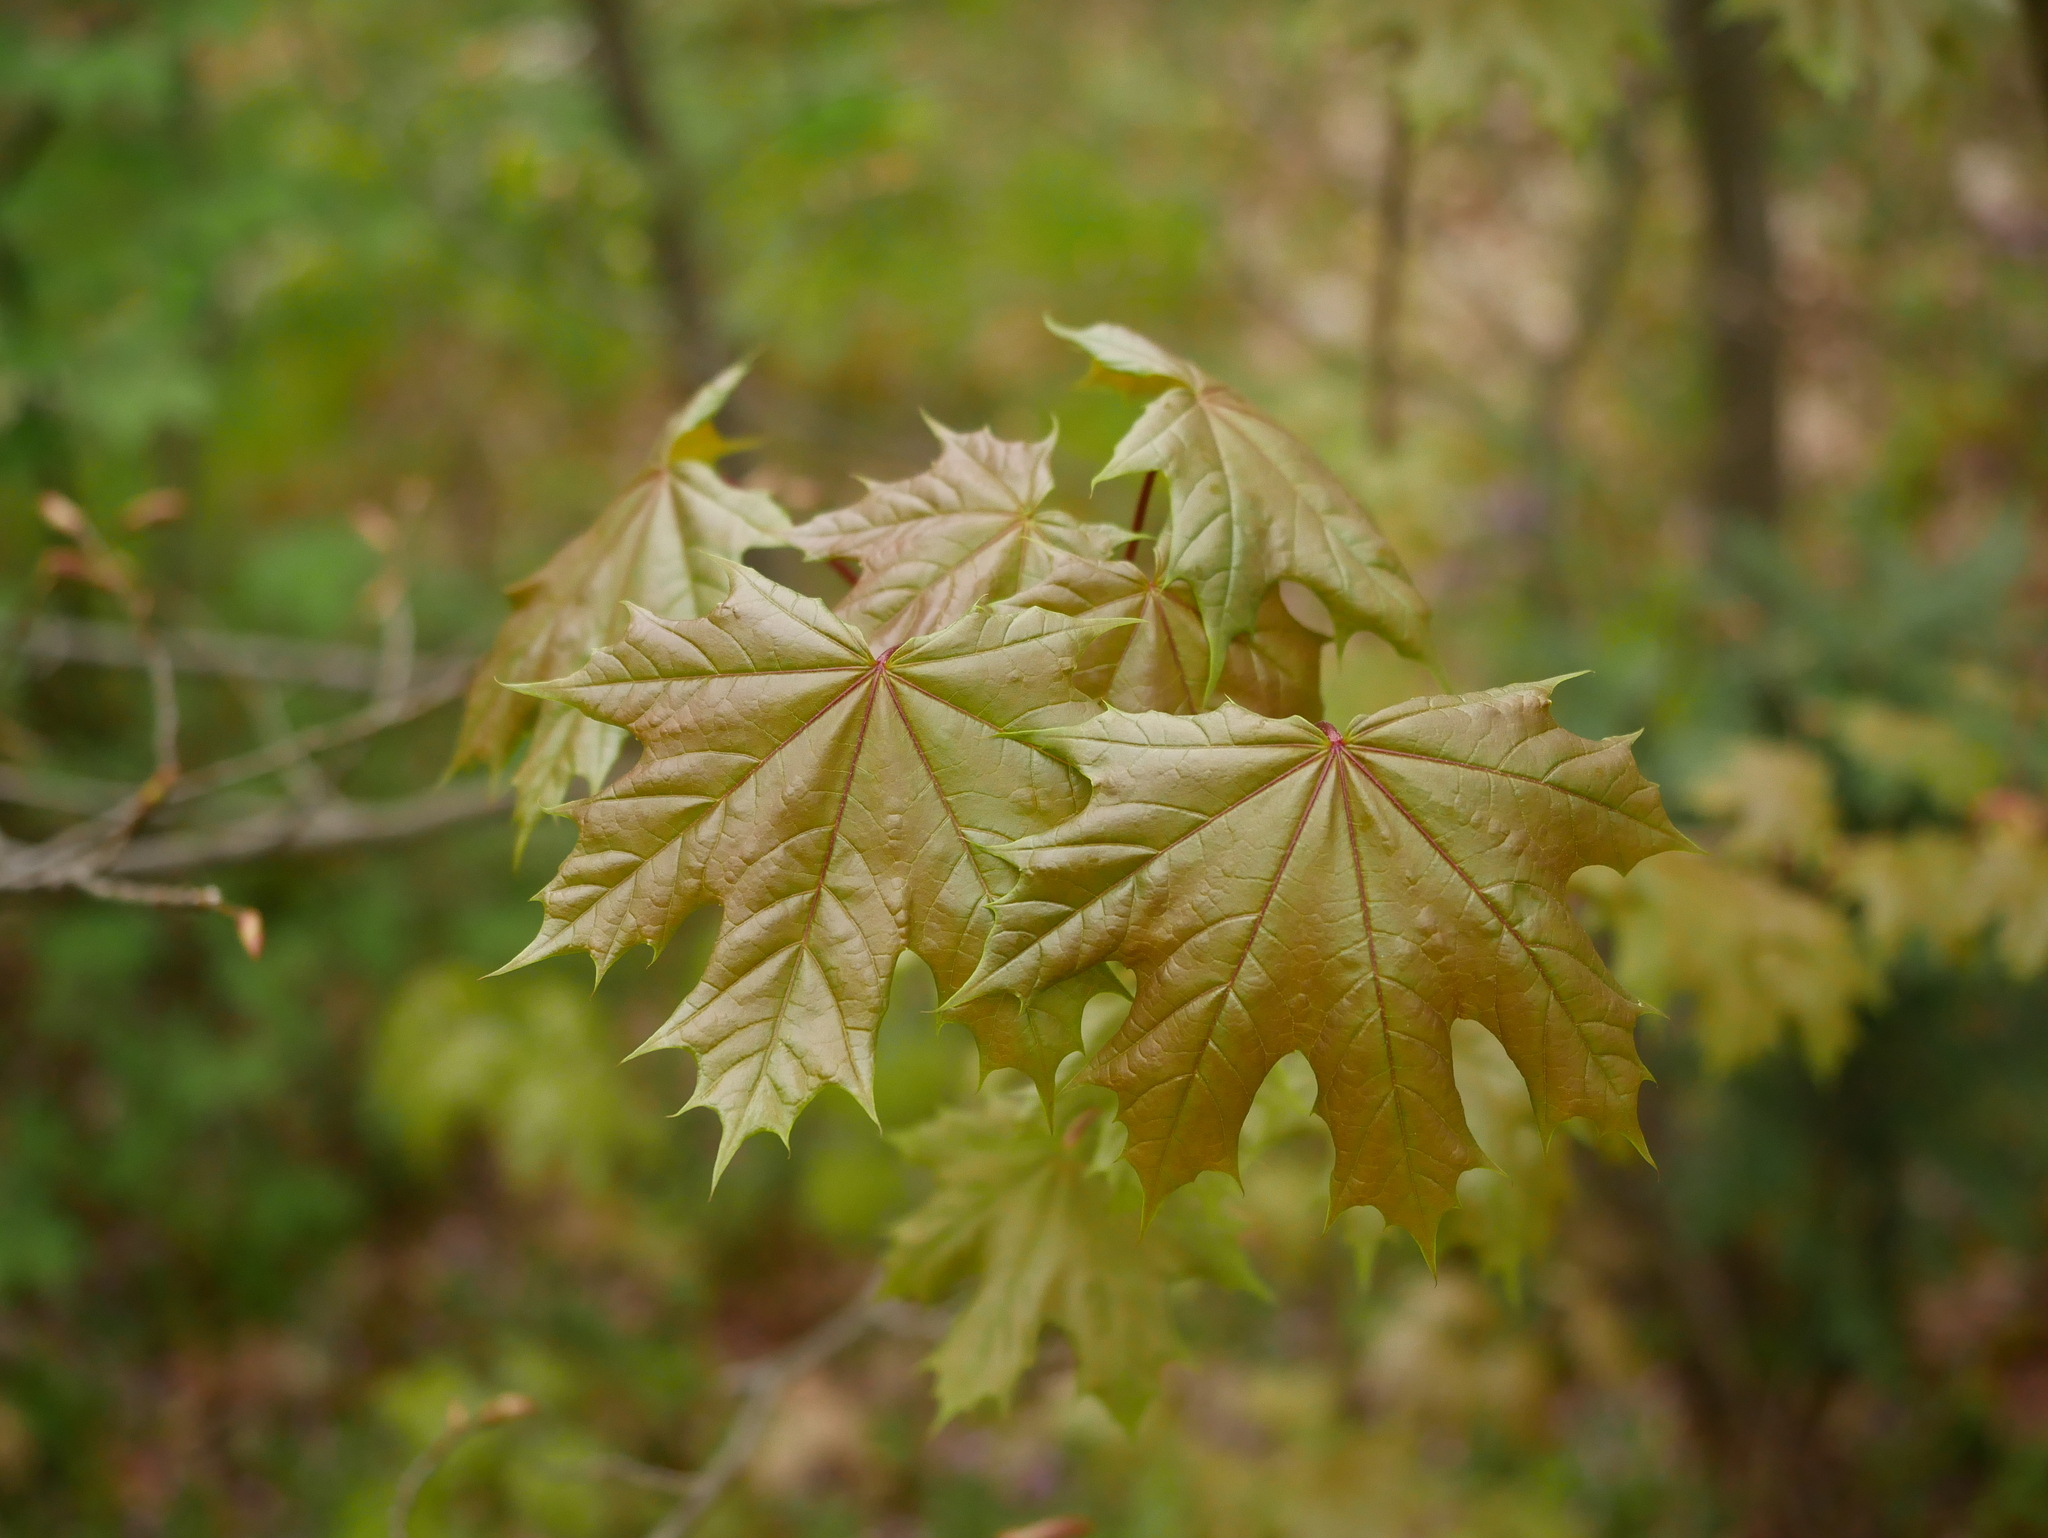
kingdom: Plantae
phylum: Tracheophyta
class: Magnoliopsida
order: Sapindales
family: Sapindaceae
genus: Acer
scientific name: Acer platanoides
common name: Norway maple
